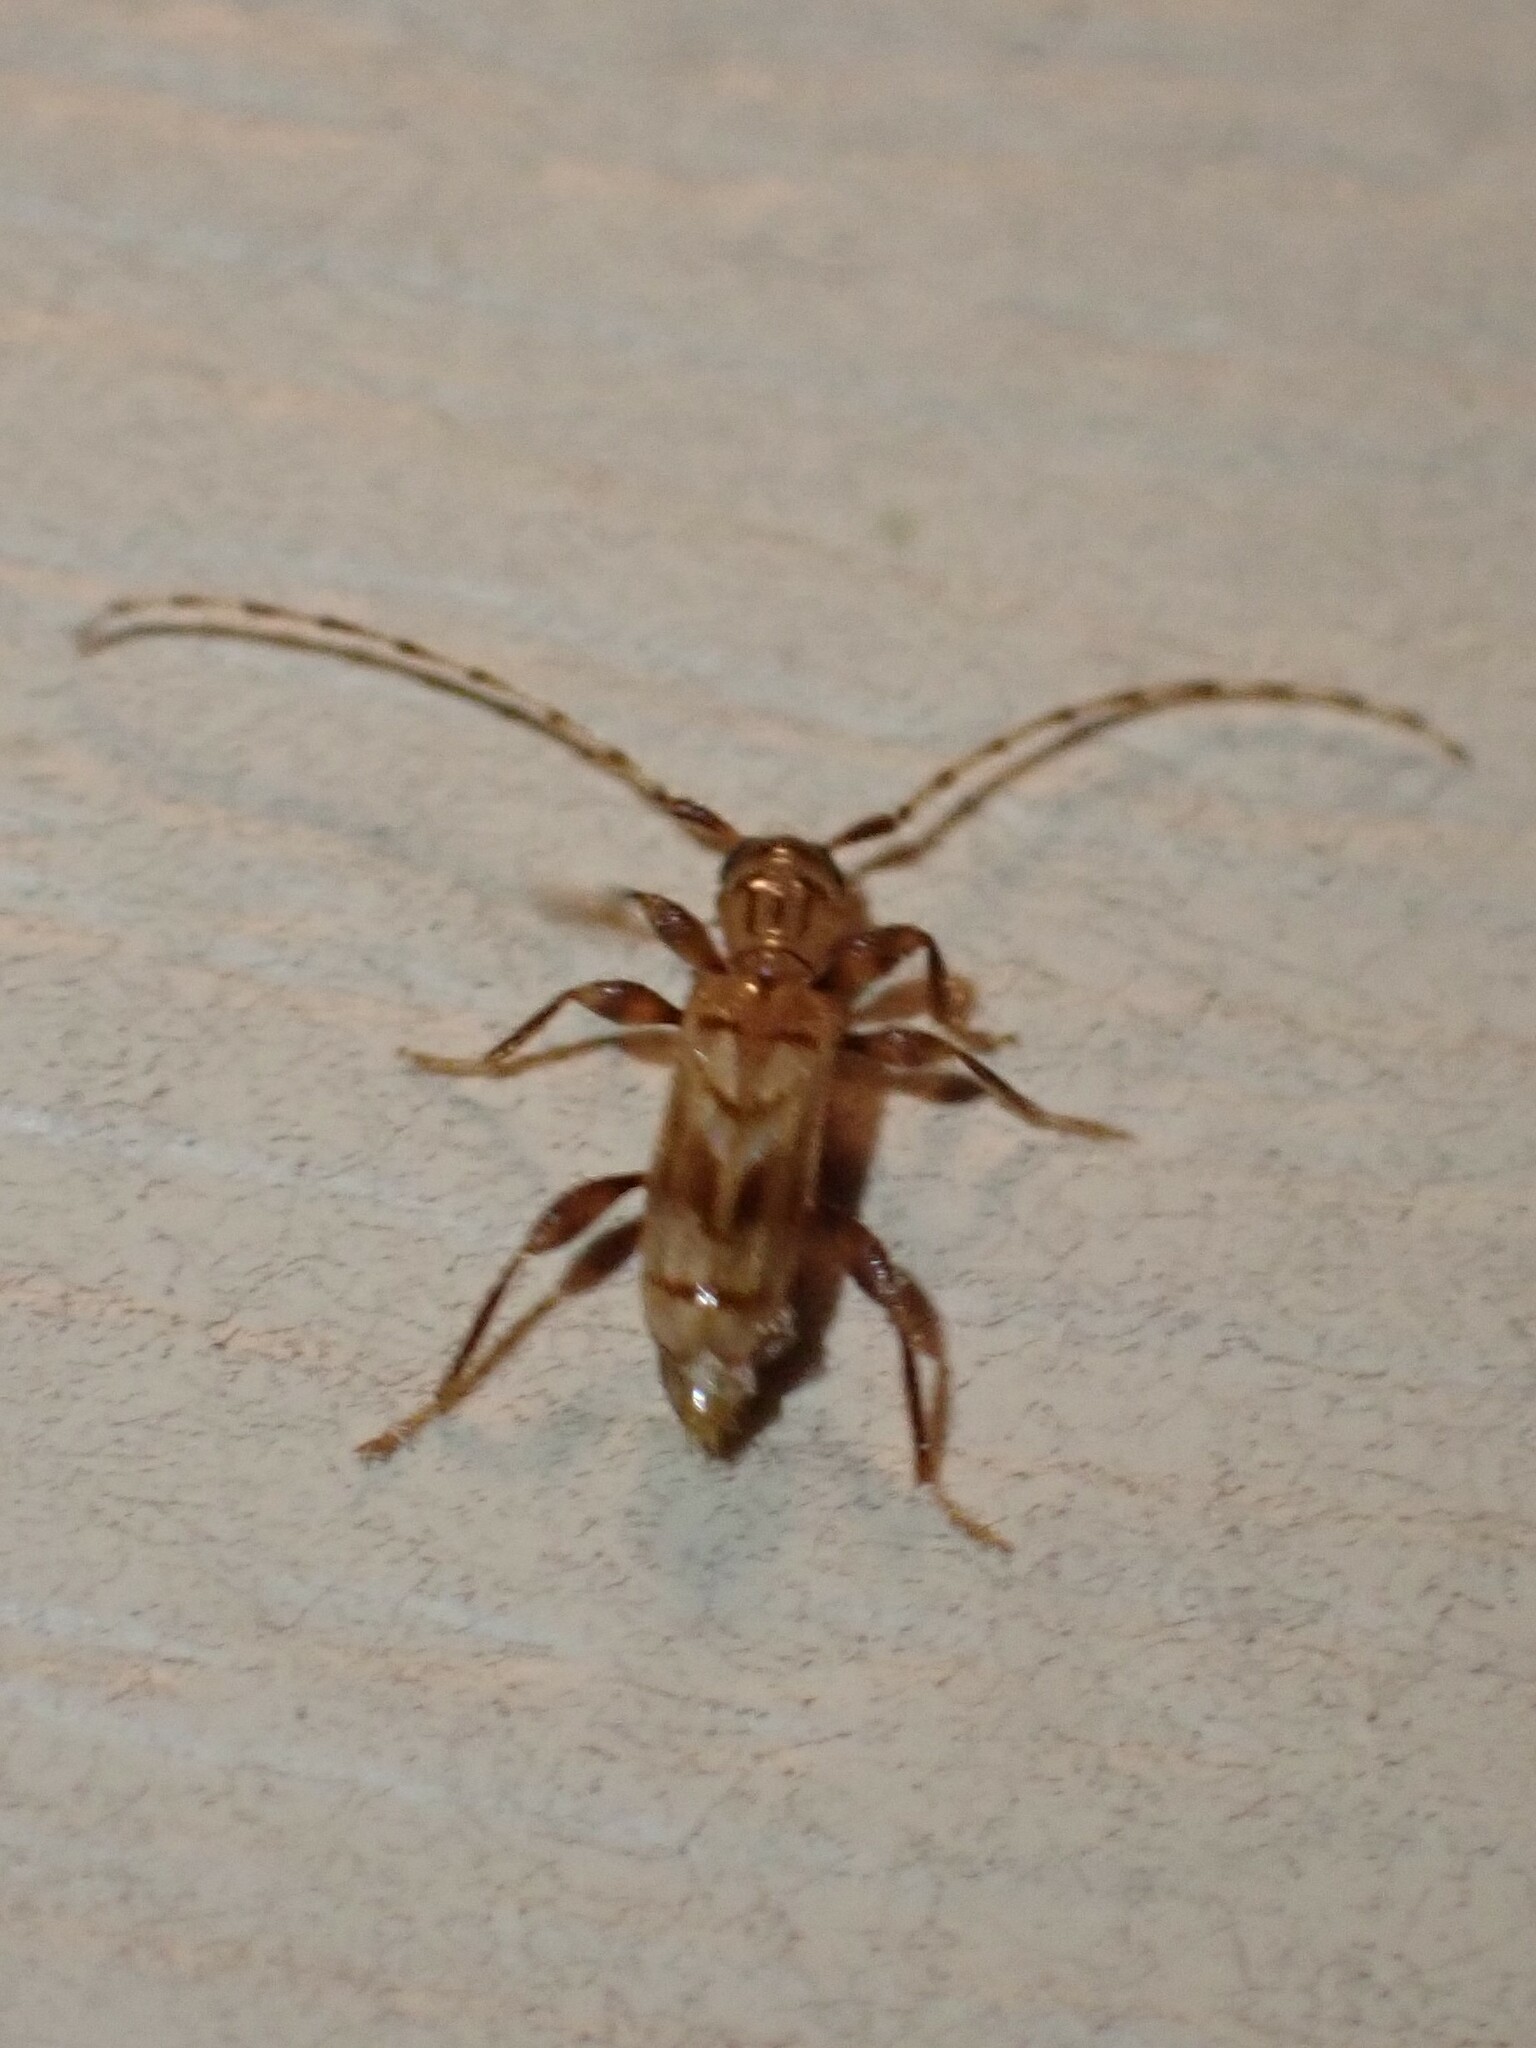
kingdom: Animalia
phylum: Arthropoda
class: Insecta
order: Coleoptera
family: Cerambycidae
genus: Obrium
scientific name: Obrium maculatum
